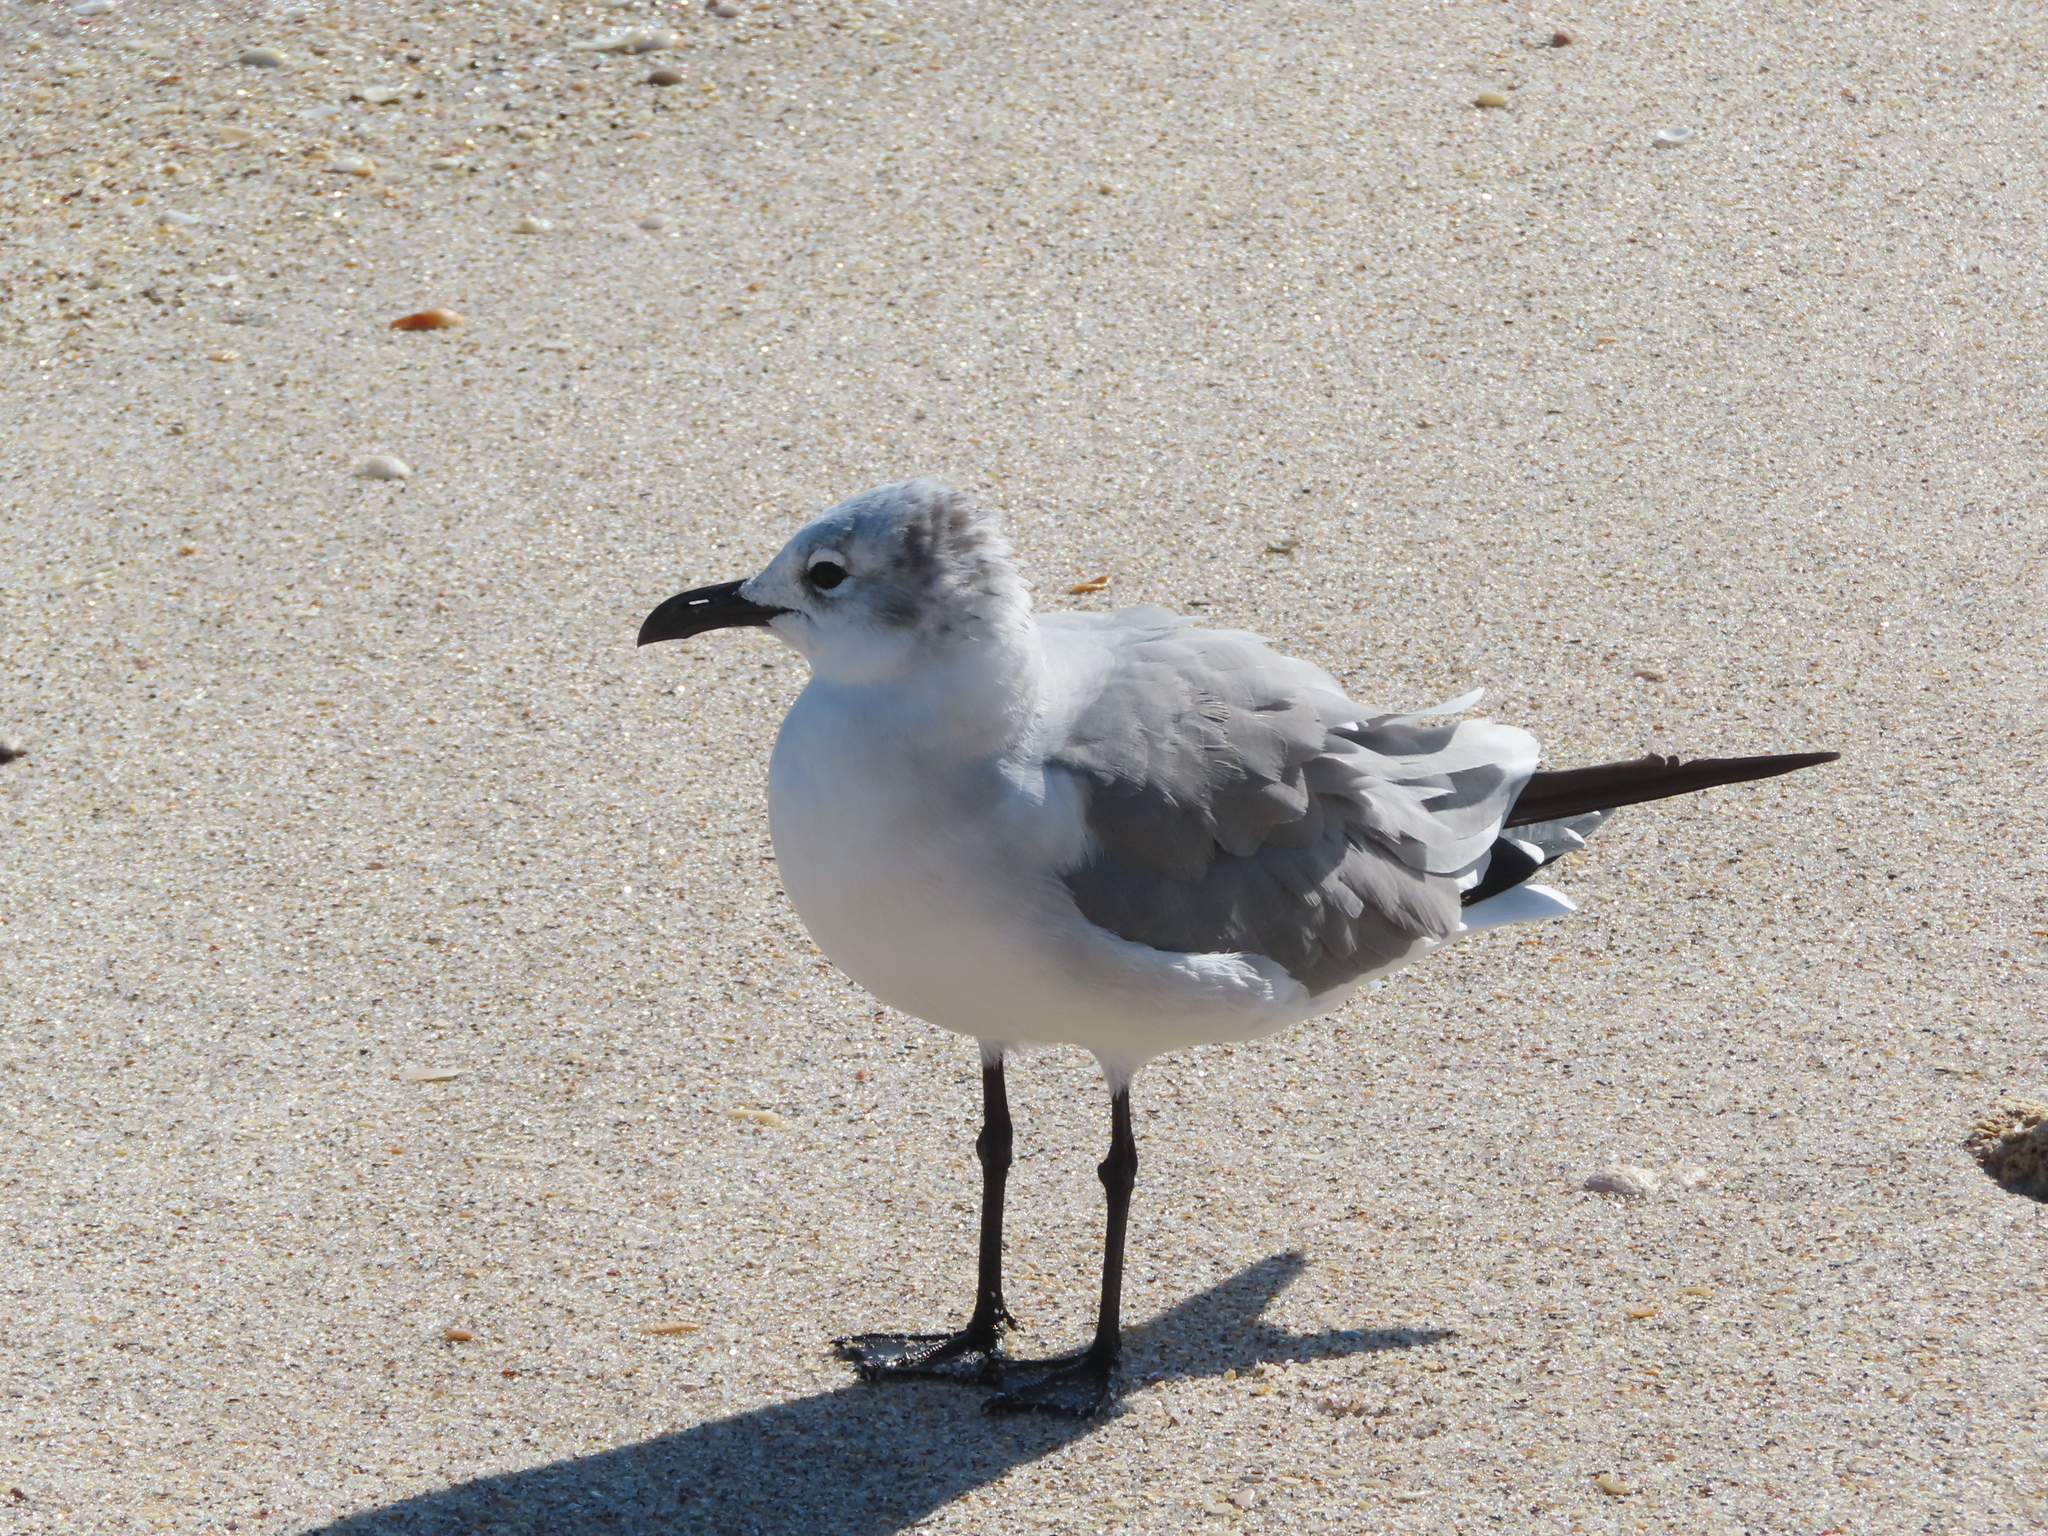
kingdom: Animalia
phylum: Chordata
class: Aves
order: Charadriiformes
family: Laridae
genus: Leucophaeus
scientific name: Leucophaeus atricilla
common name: Laughing gull
